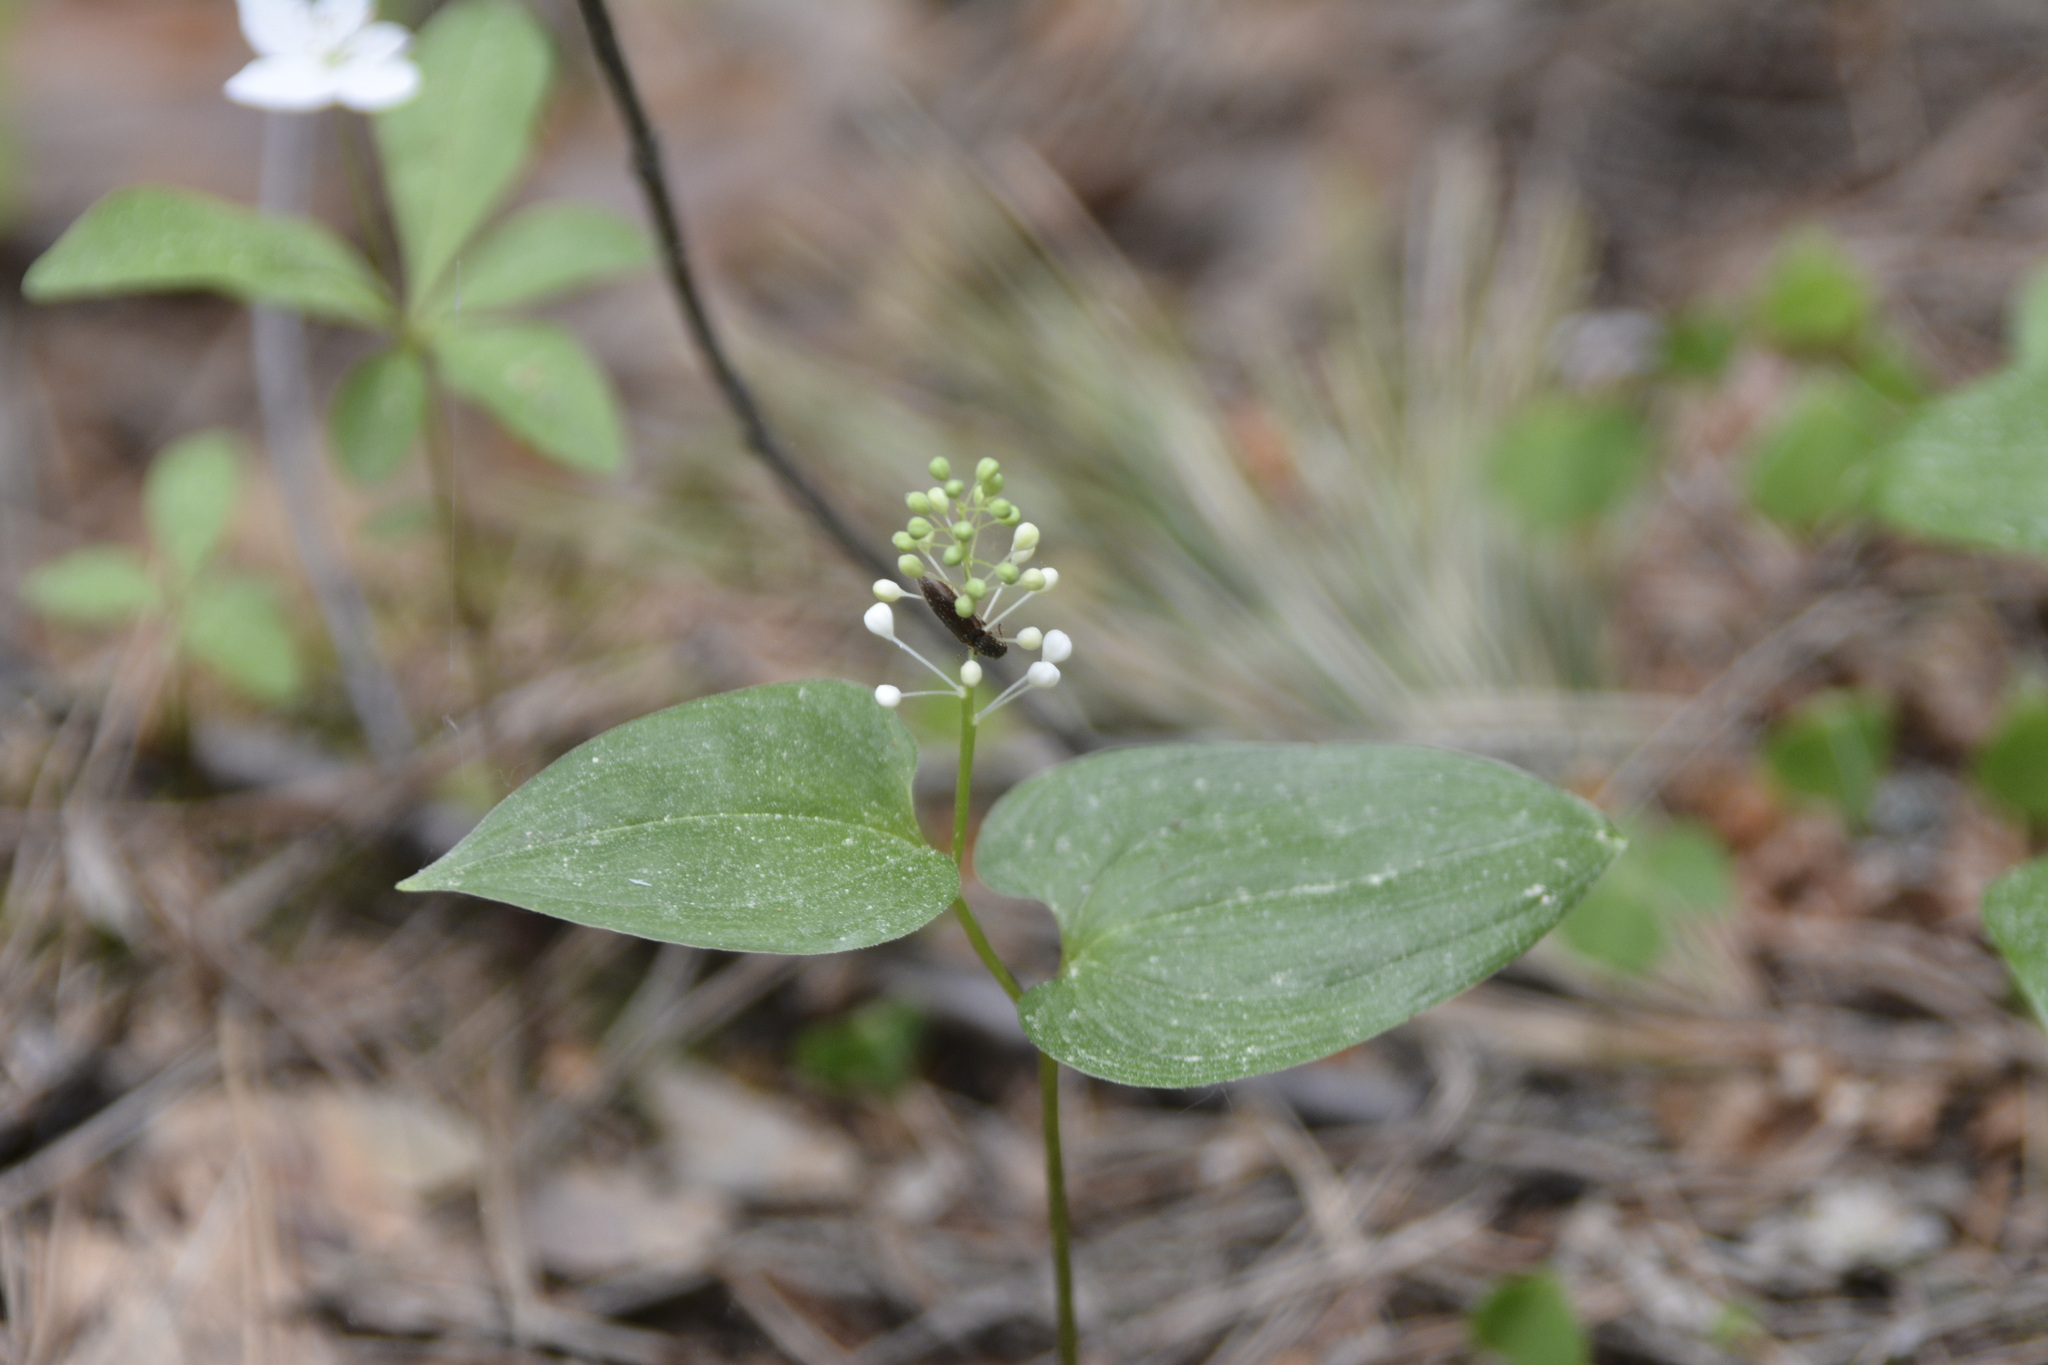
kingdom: Plantae
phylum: Tracheophyta
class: Liliopsida
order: Asparagales
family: Asparagaceae
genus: Maianthemum
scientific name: Maianthemum bifolium
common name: May lily
